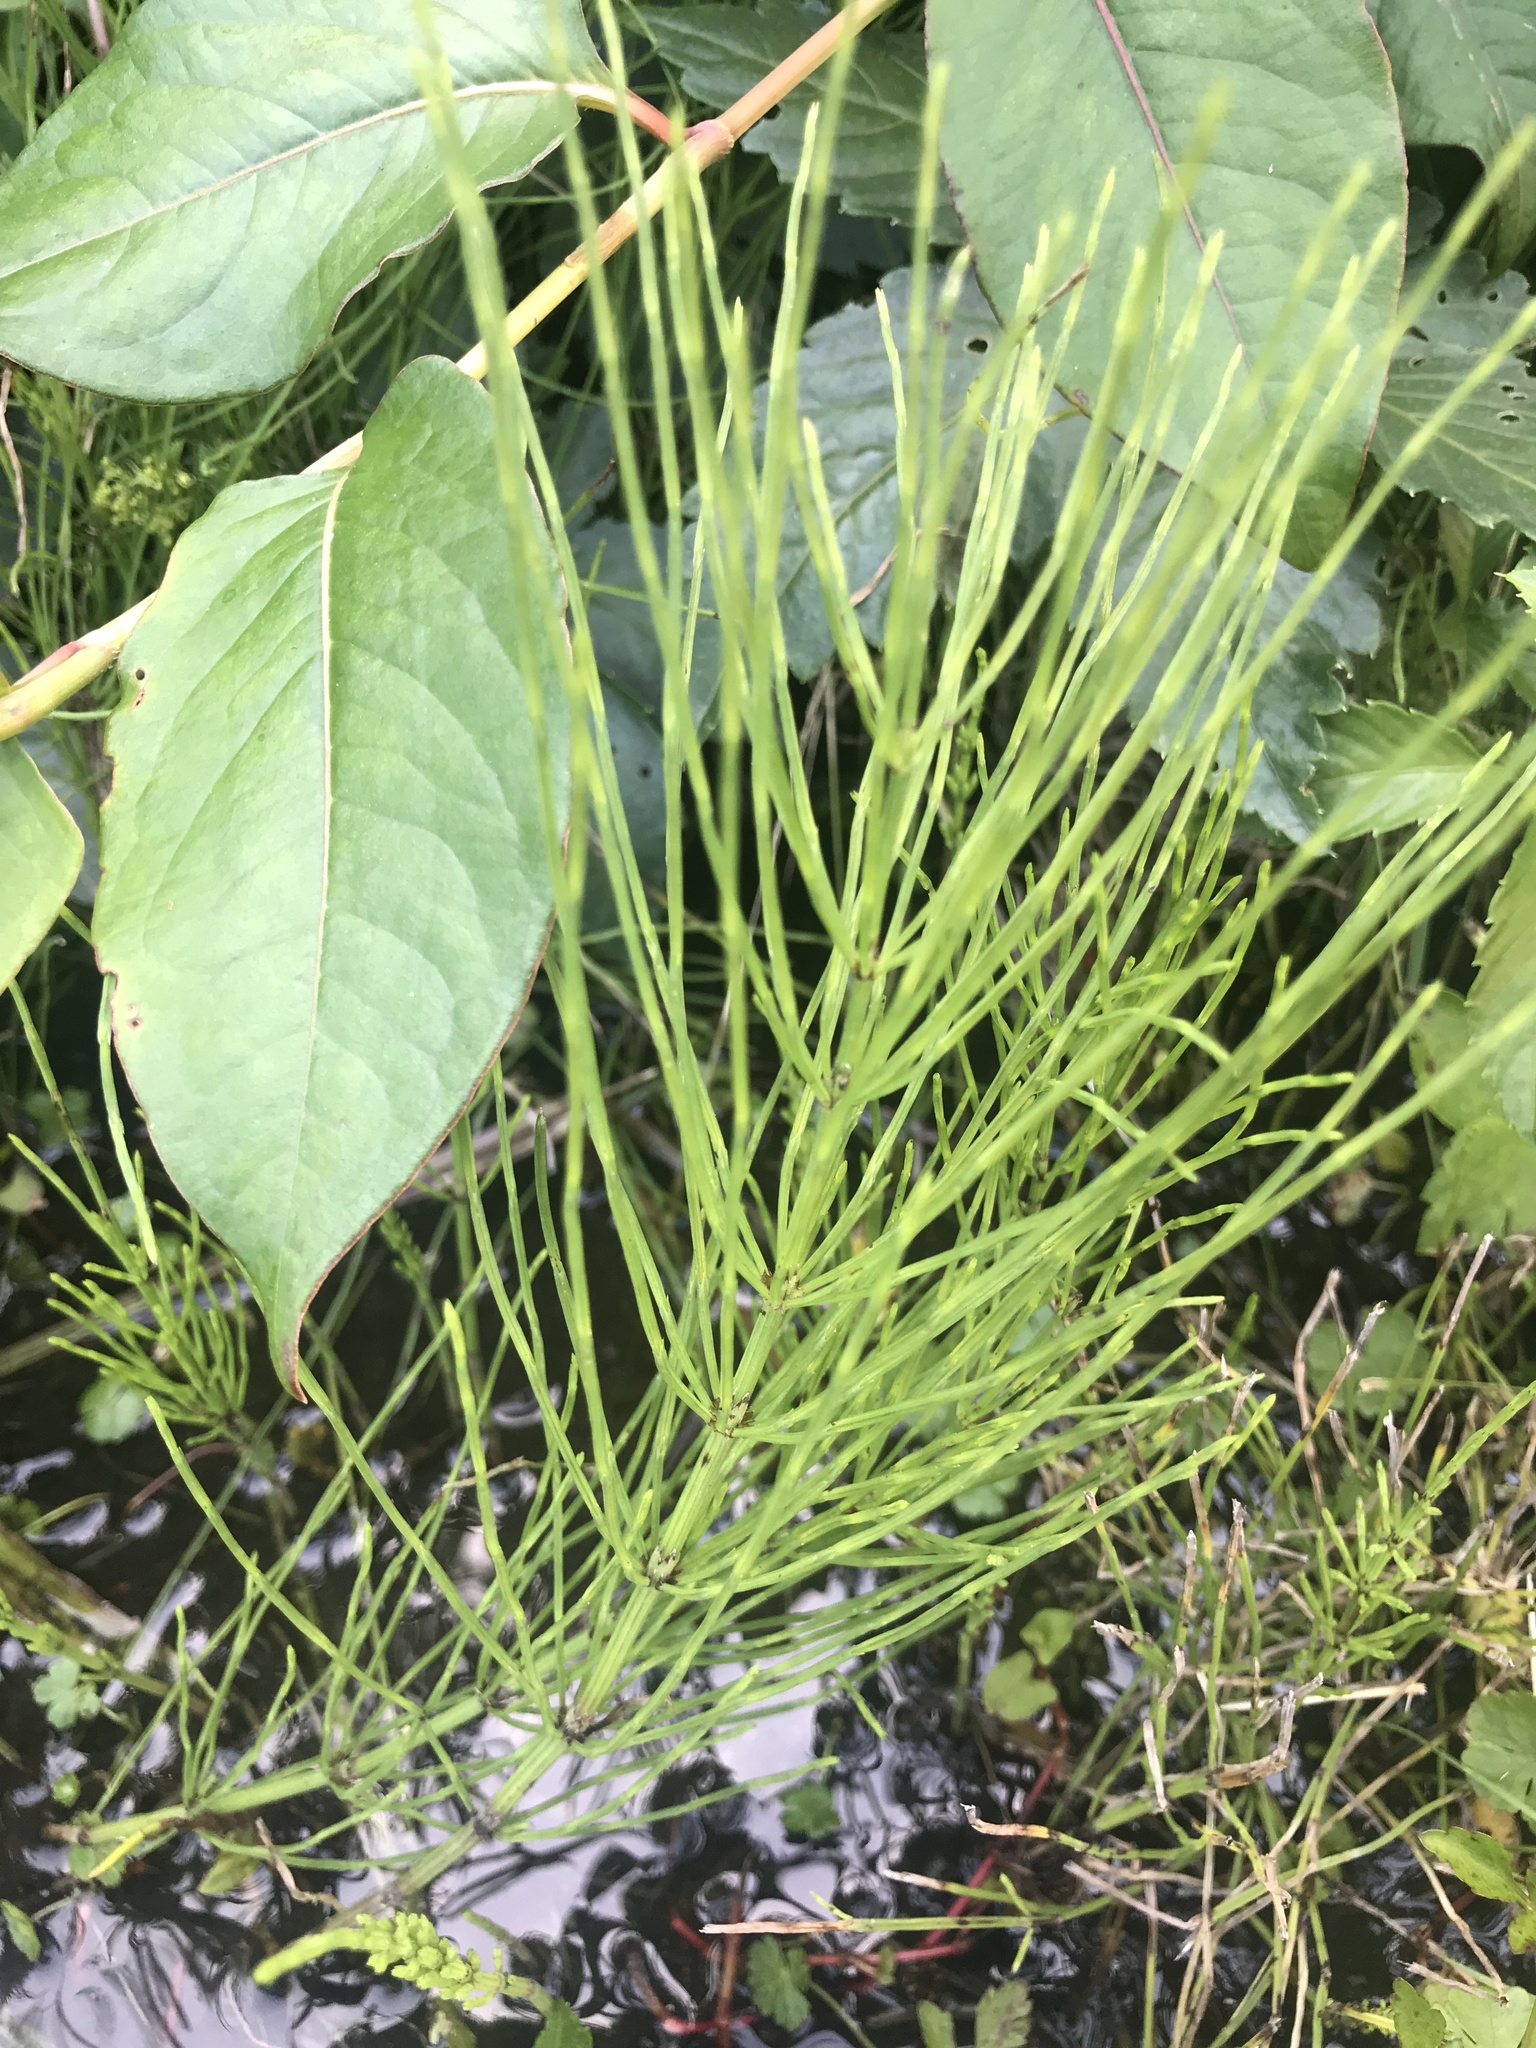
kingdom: Plantae
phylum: Tracheophyta
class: Polypodiopsida
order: Equisetales
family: Equisetaceae
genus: Equisetum
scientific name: Equisetum arvense
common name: Field horsetail
